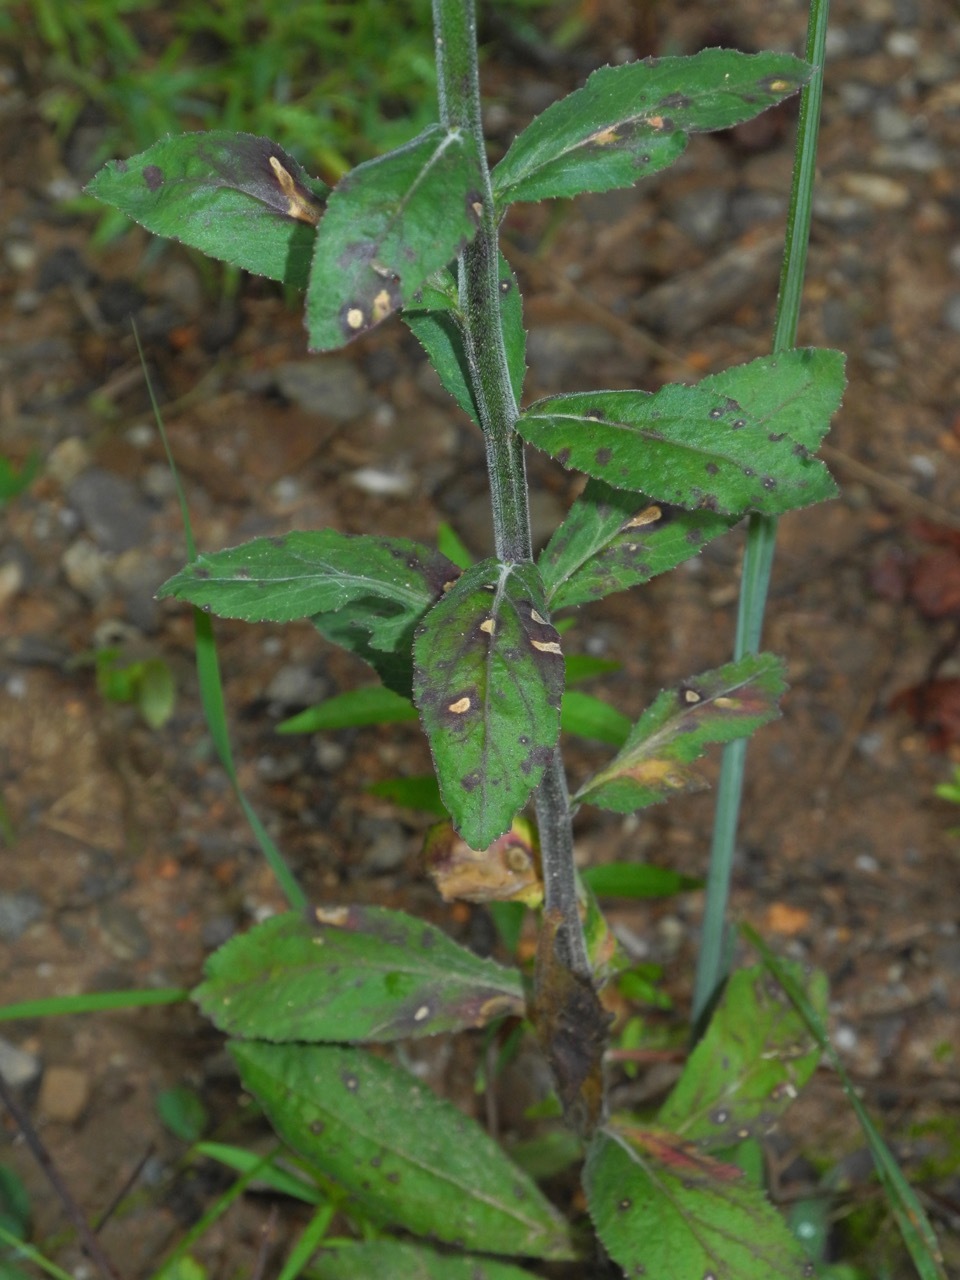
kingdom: Plantae
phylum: Tracheophyta
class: Magnoliopsida
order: Asterales
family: Campanulaceae
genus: Lobelia
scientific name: Lobelia puberula
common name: Purple dewdrop
